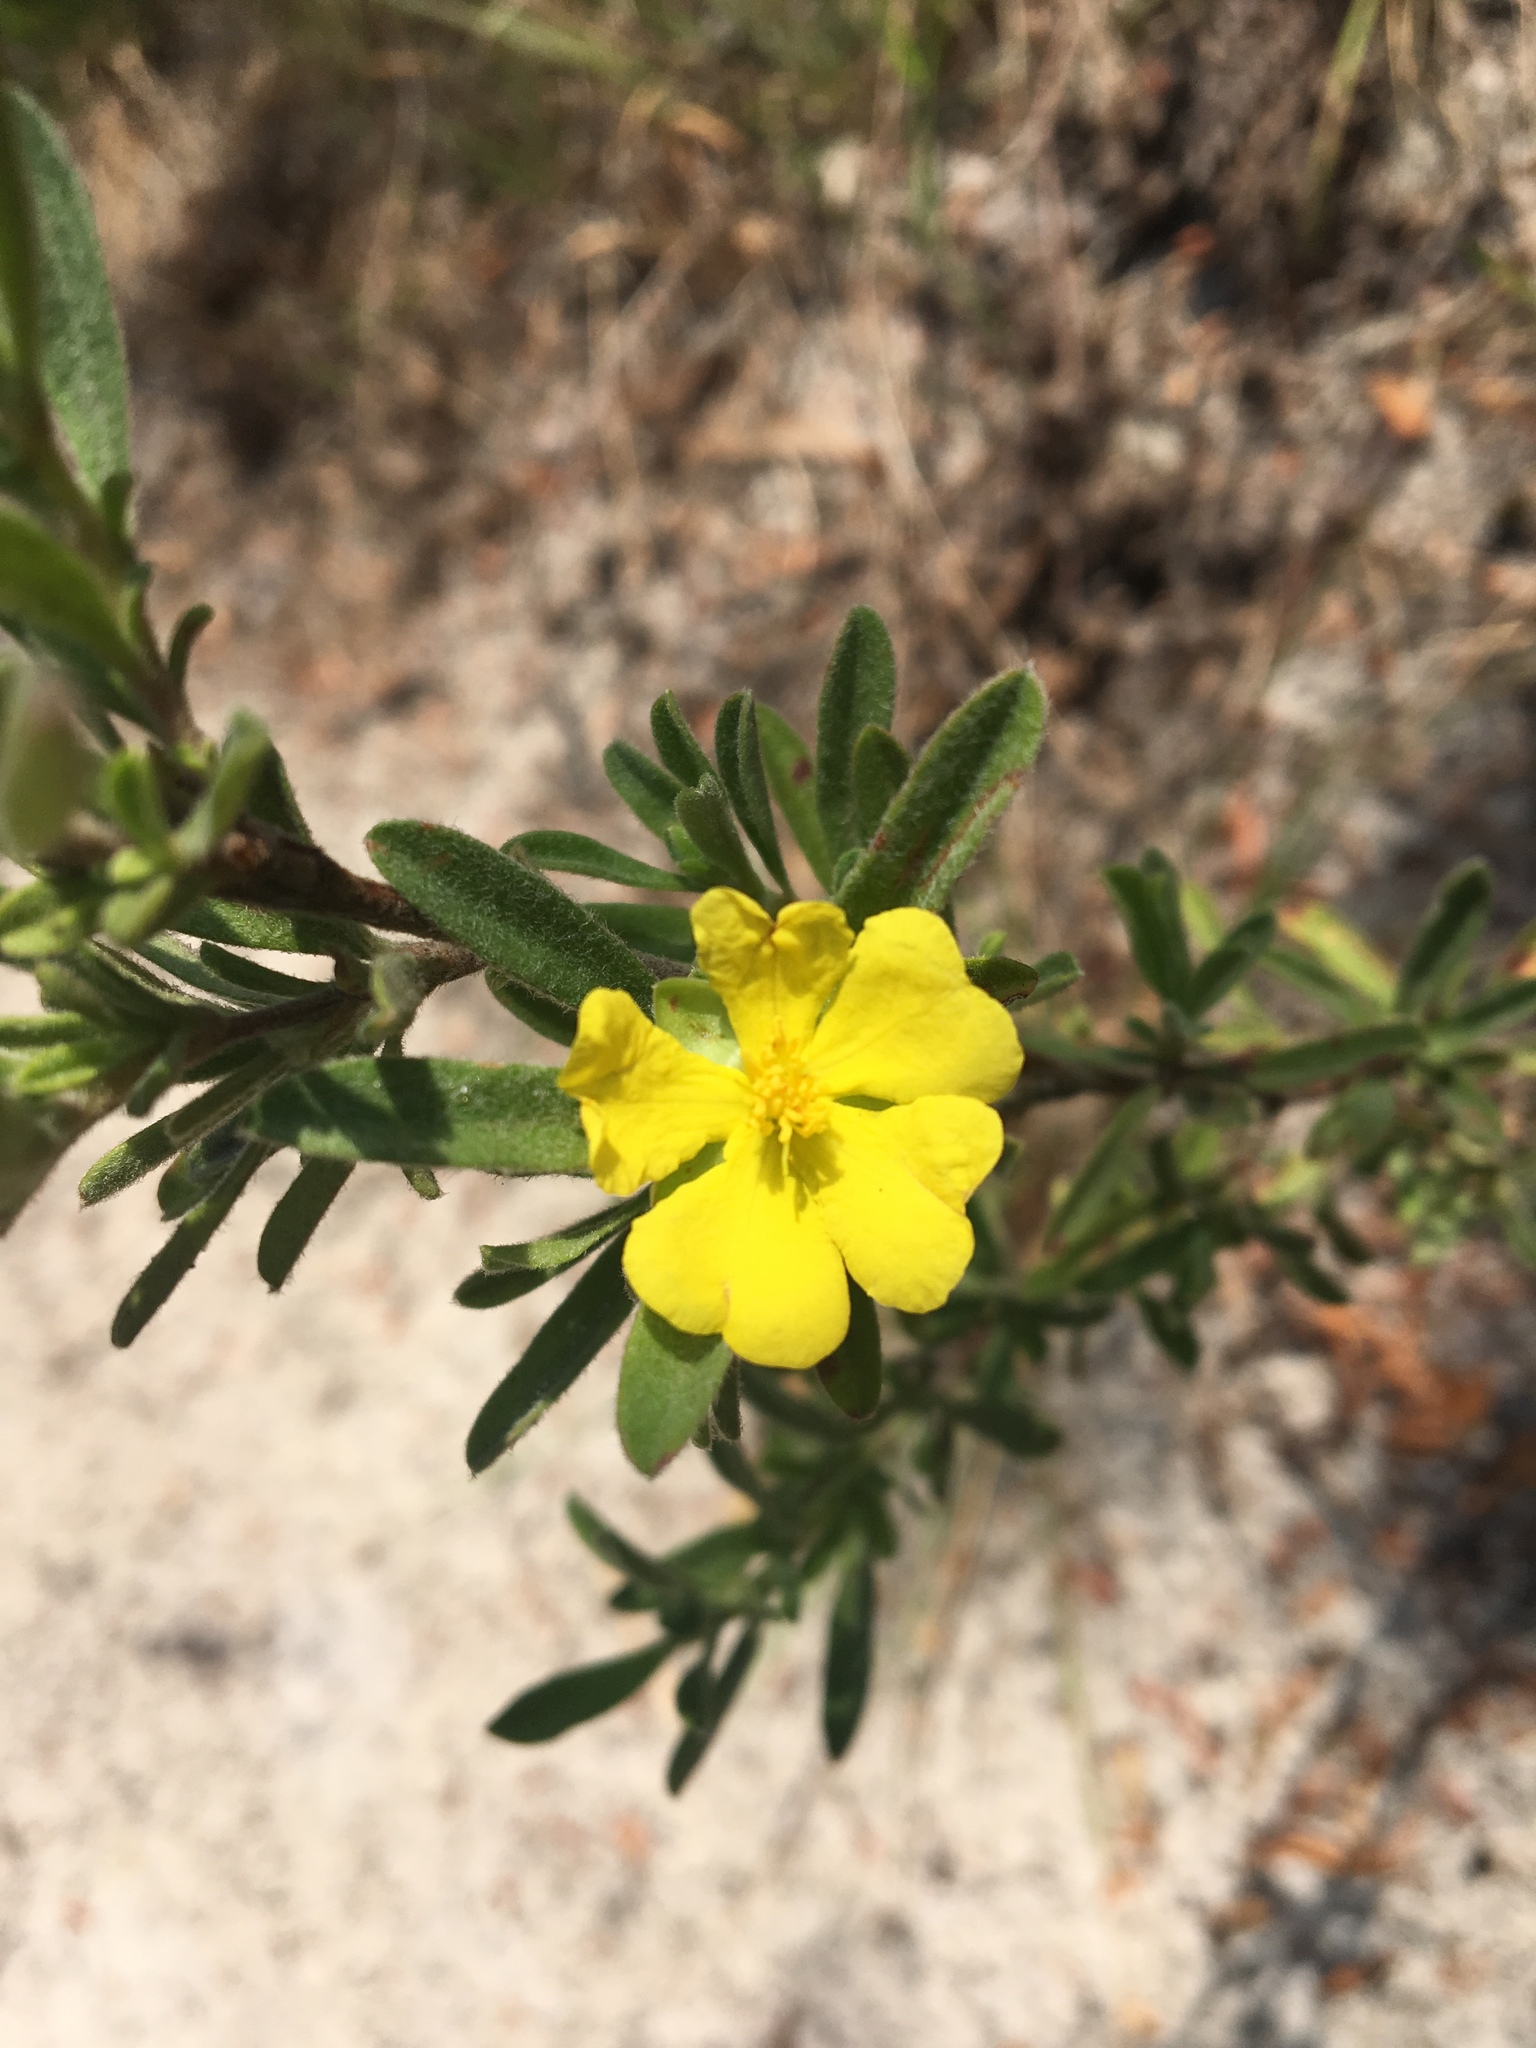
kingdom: Plantae
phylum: Tracheophyta
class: Magnoliopsida
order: Dilleniales
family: Dilleniaceae
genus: Hibbertia
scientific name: Hibbertia obtusifolia
